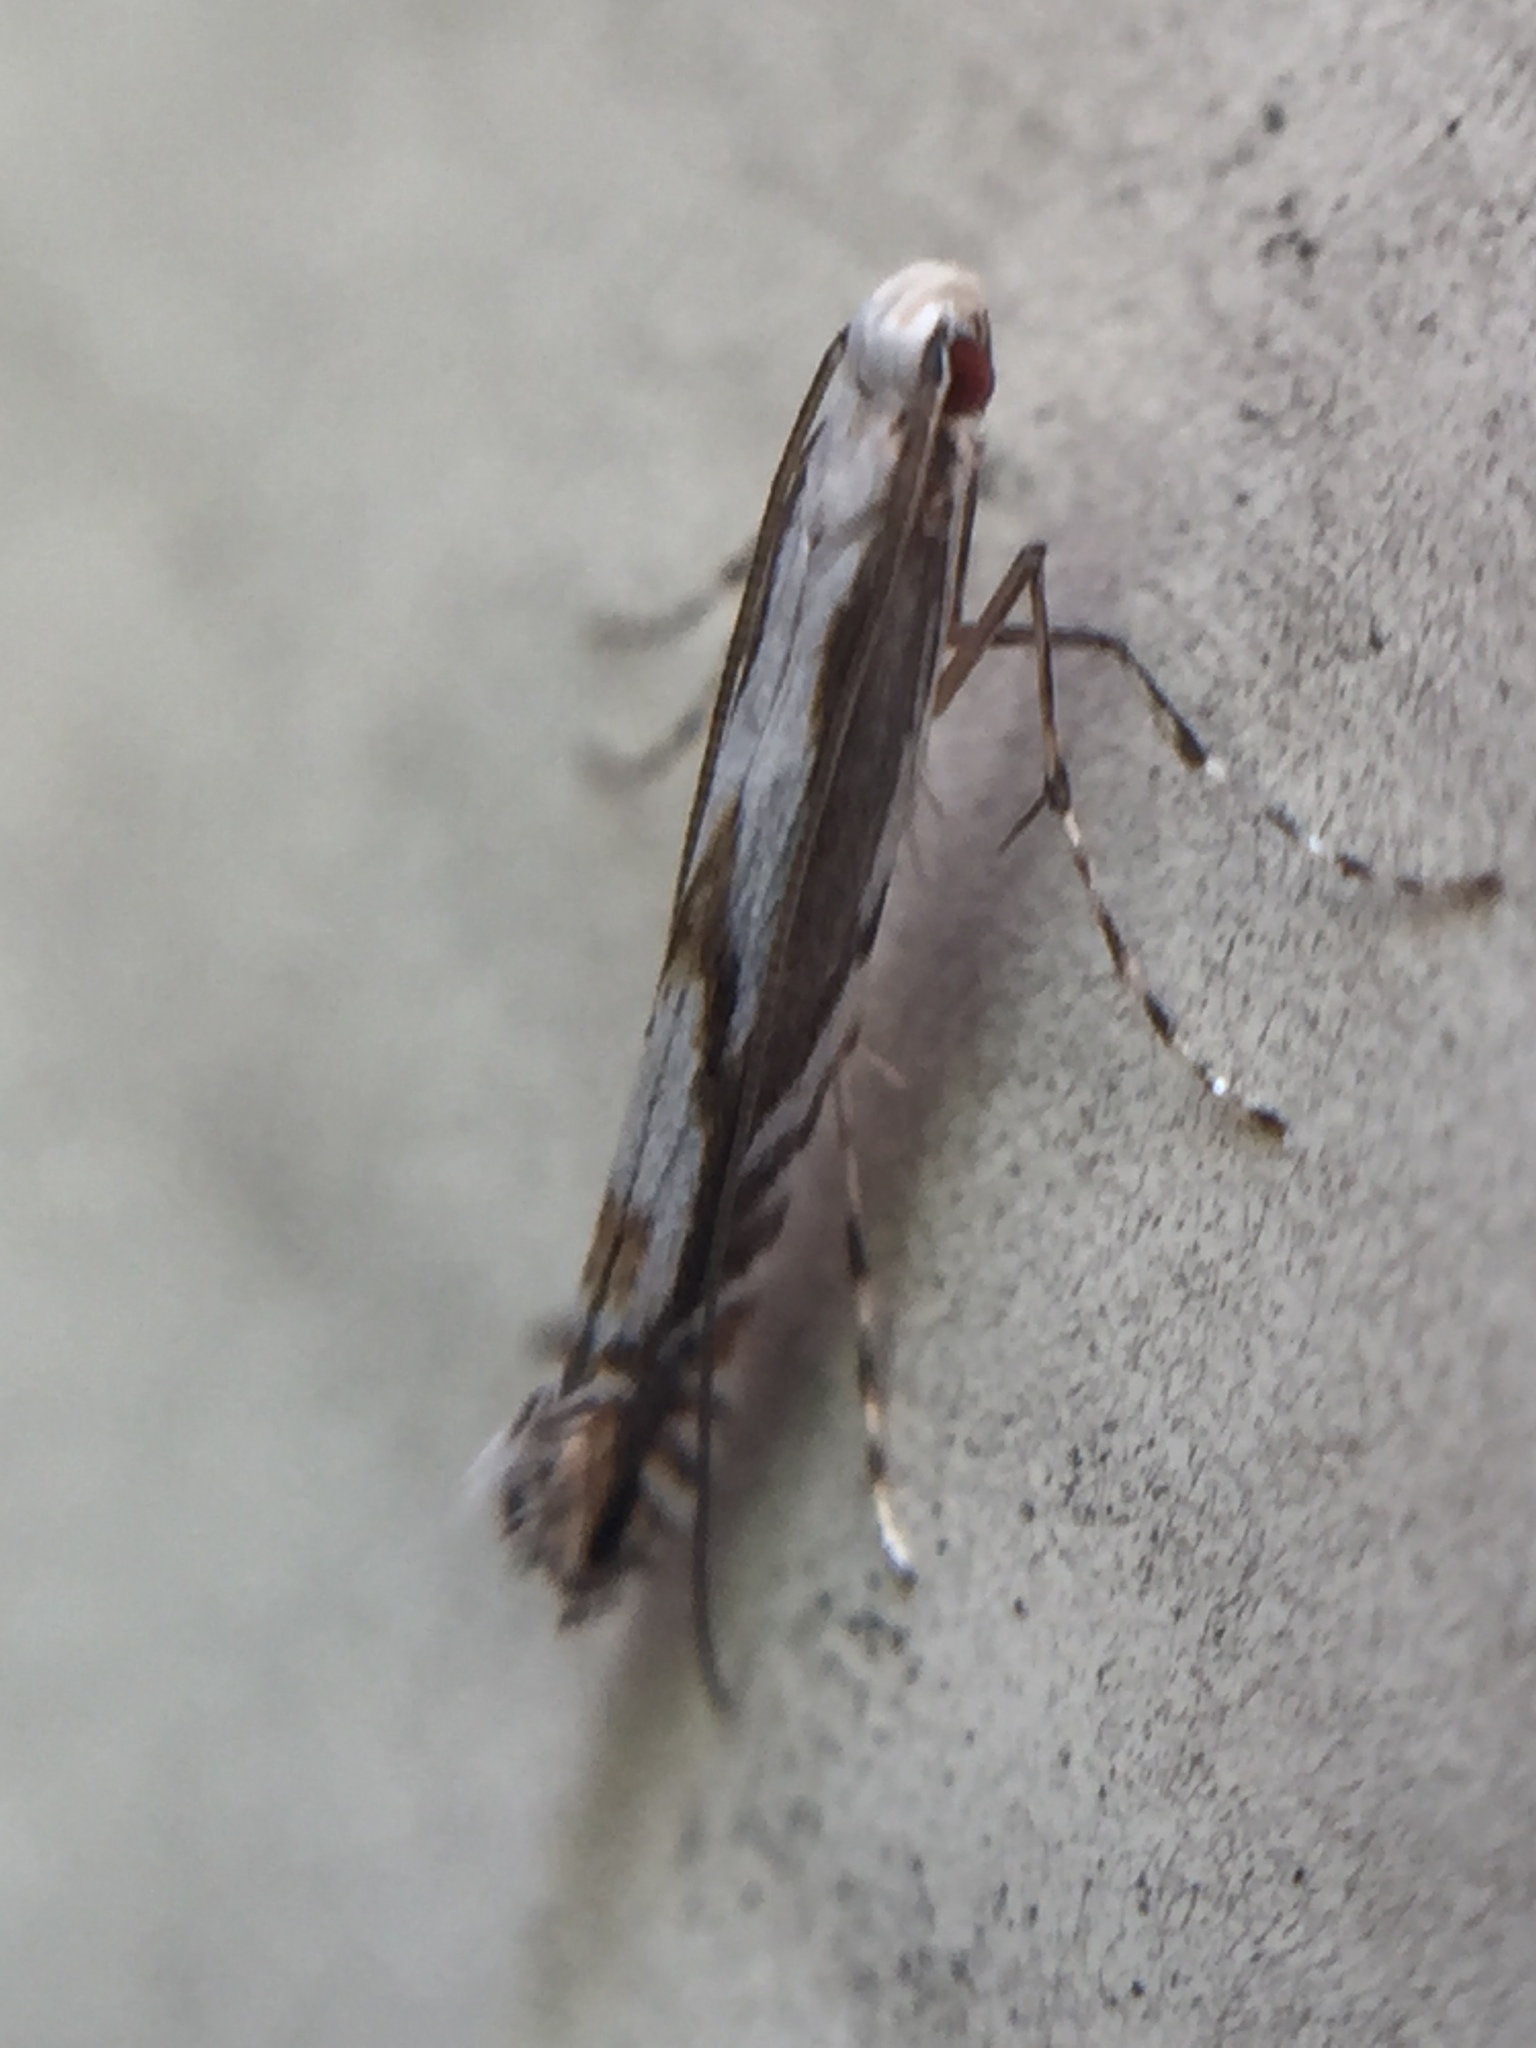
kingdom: Animalia
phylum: Arthropoda
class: Insecta
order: Lepidoptera
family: Gracillariidae
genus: Acrocercops
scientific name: Acrocercops leucotoma
